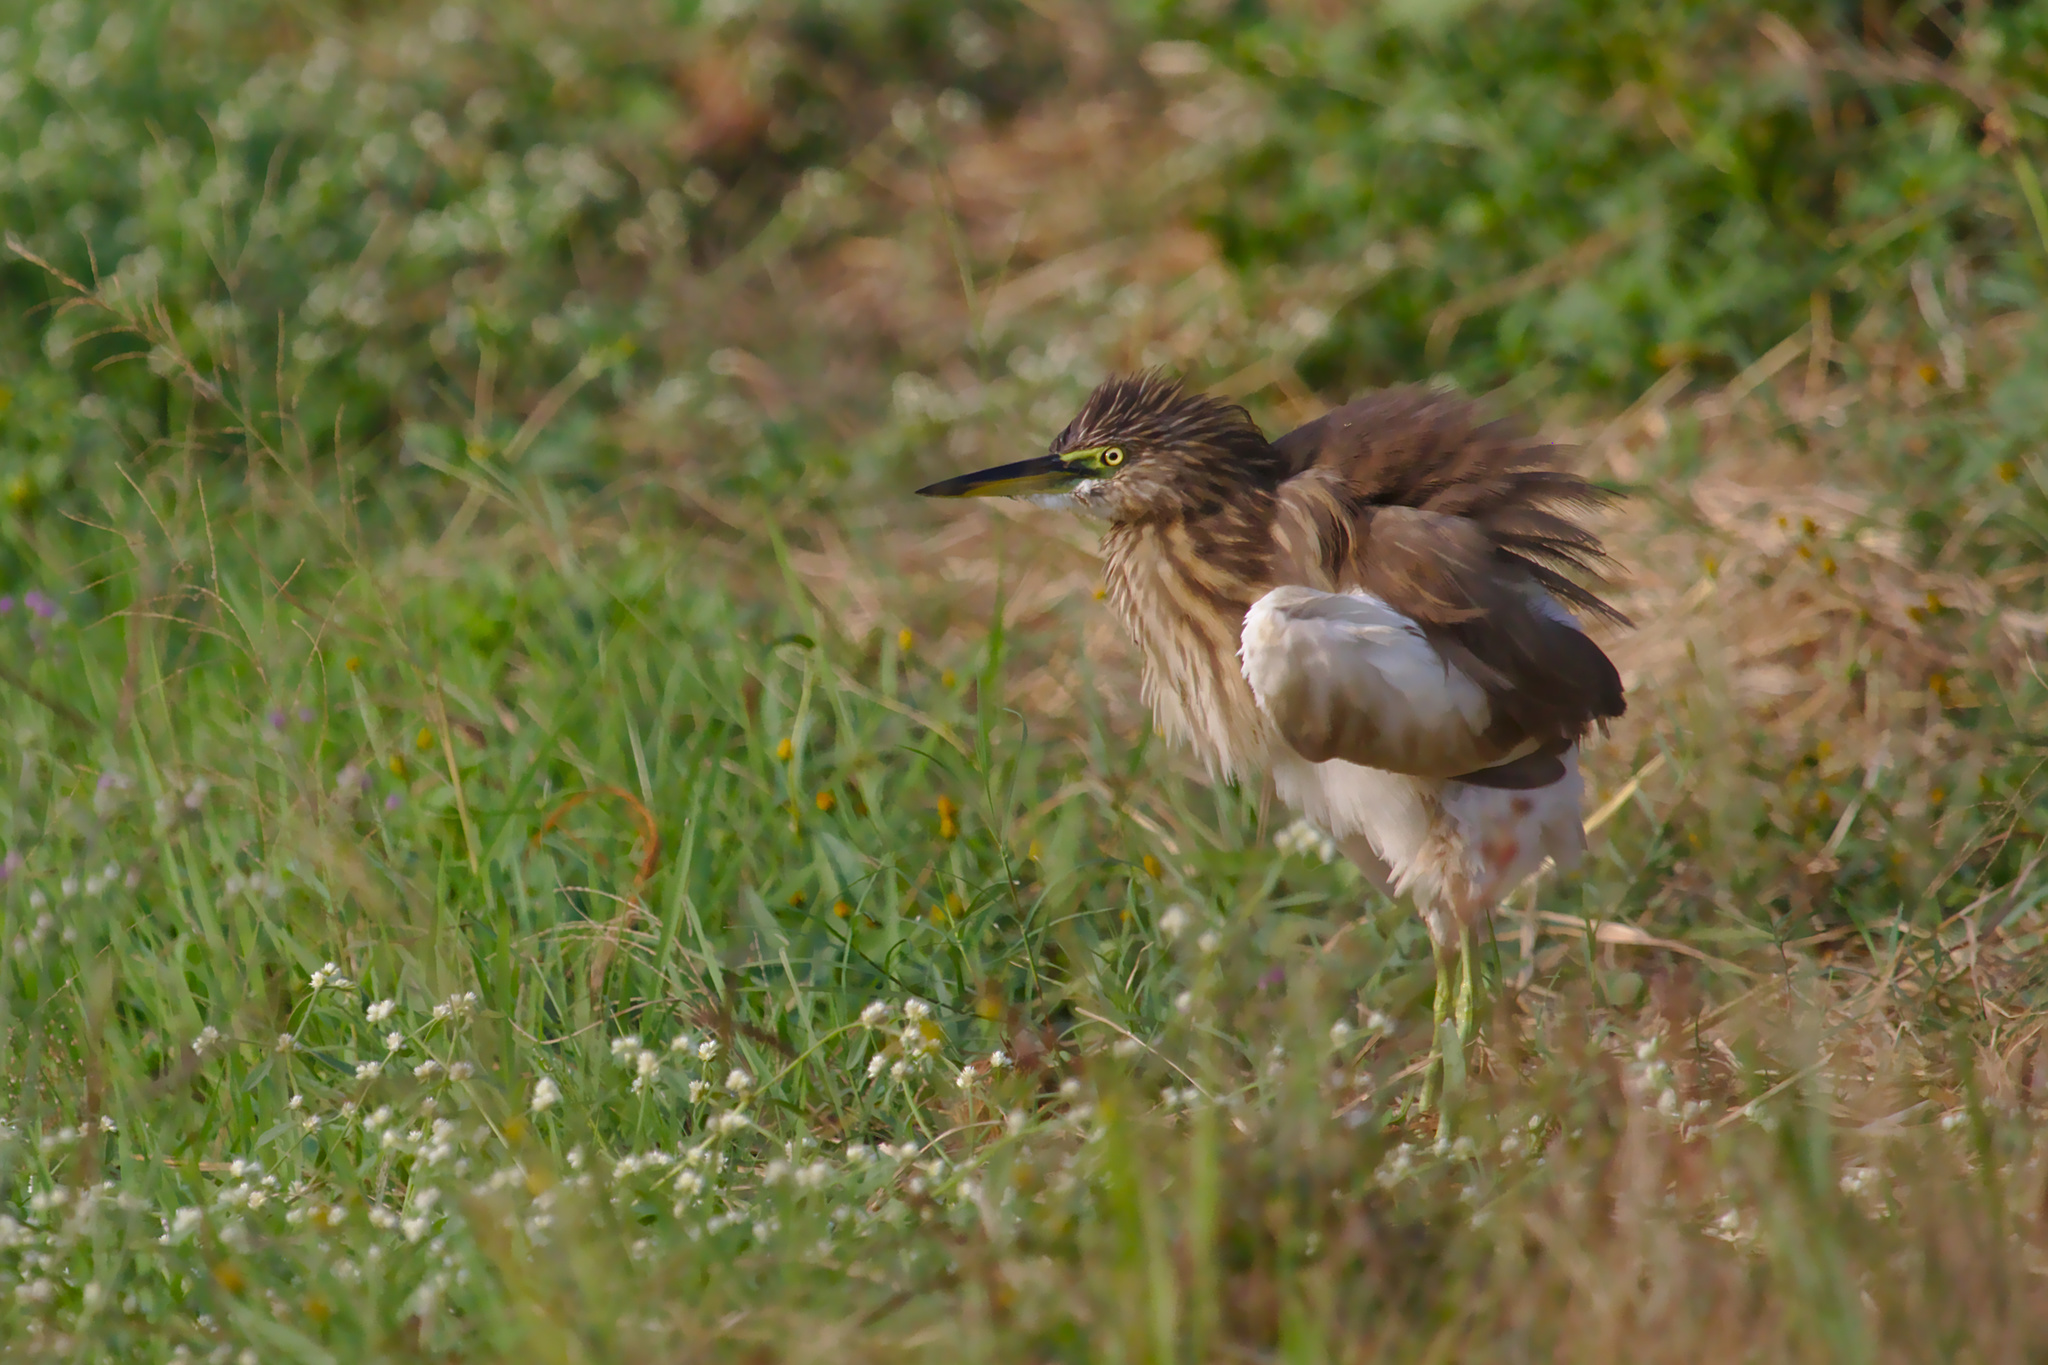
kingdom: Animalia
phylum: Chordata
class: Aves
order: Pelecaniformes
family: Ardeidae
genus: Ardeola
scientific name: Ardeola grayii
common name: Indian pond heron
